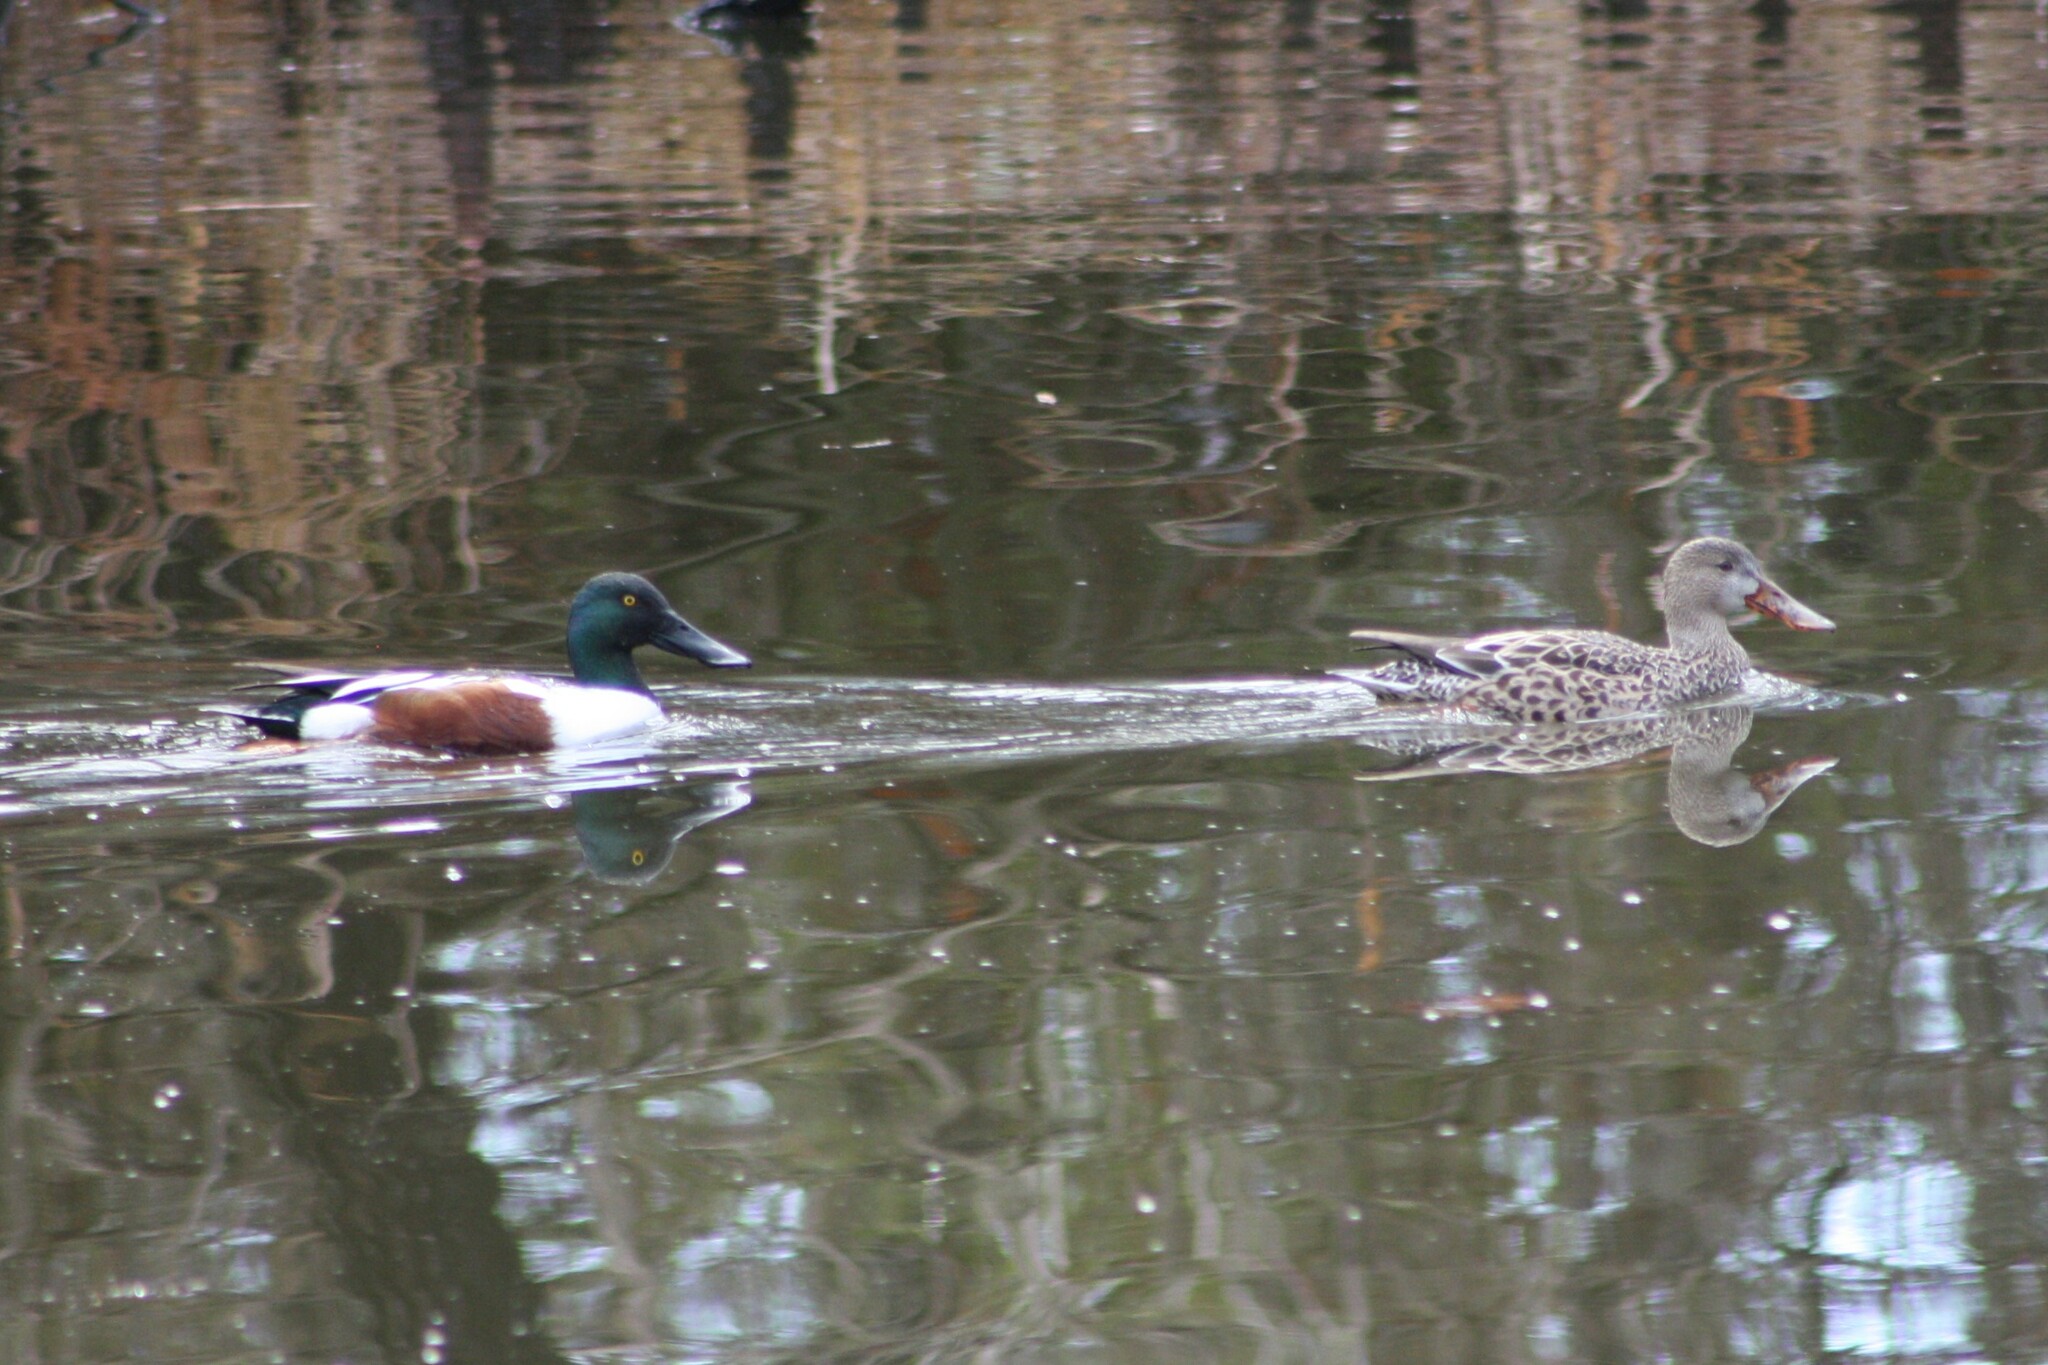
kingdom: Animalia
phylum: Chordata
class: Aves
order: Anseriformes
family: Anatidae
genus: Spatula
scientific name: Spatula clypeata
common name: Northern shoveler
